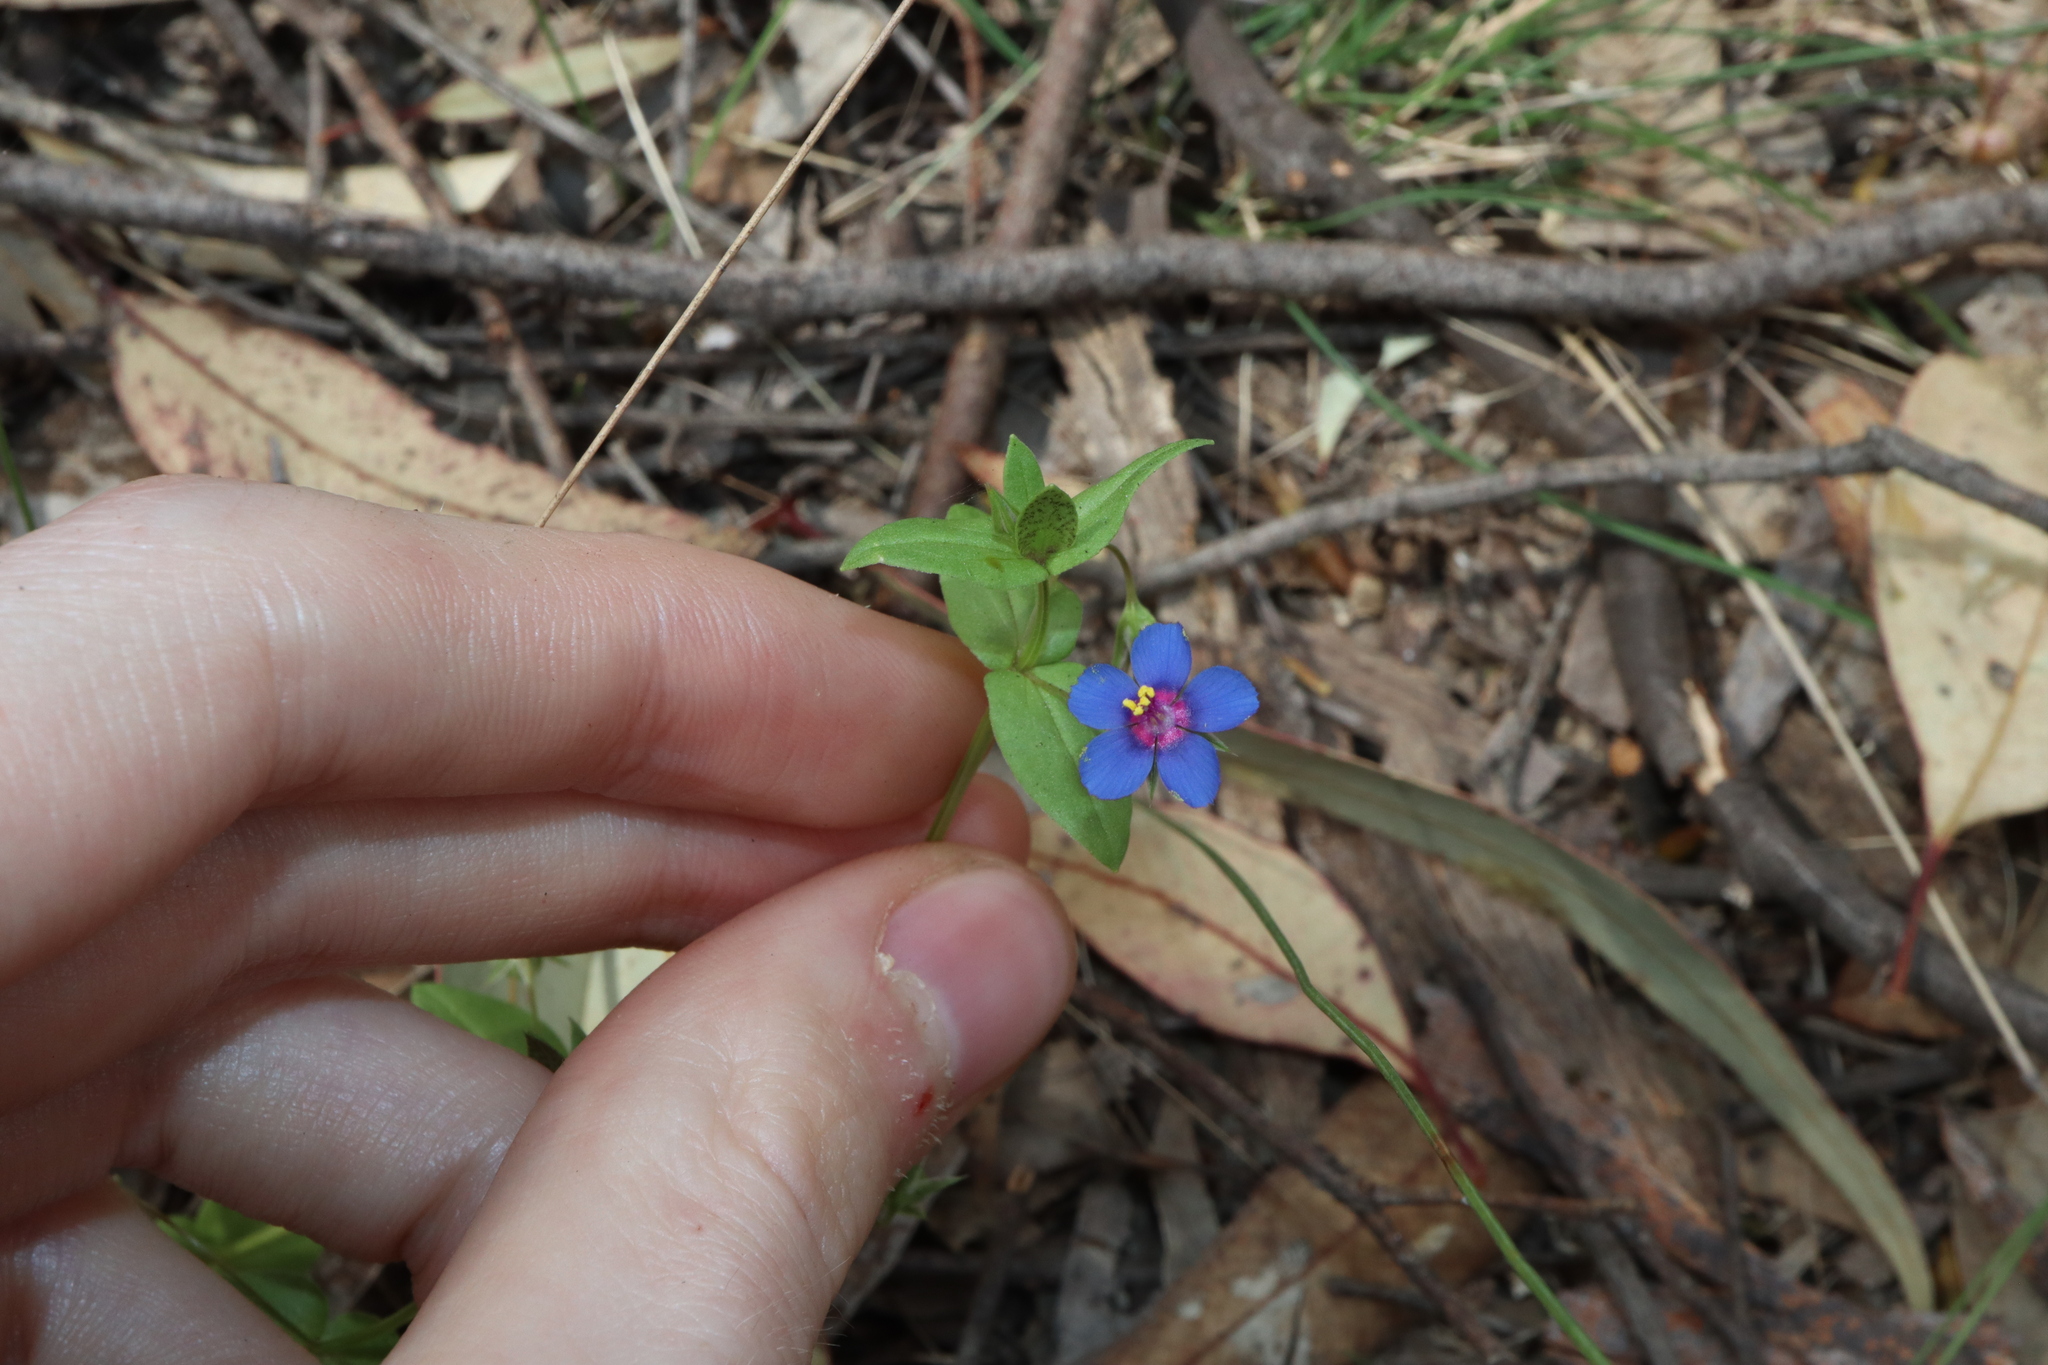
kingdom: Plantae
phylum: Tracheophyta
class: Magnoliopsida
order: Ericales
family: Primulaceae
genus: Lysimachia
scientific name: Lysimachia loeflingii
